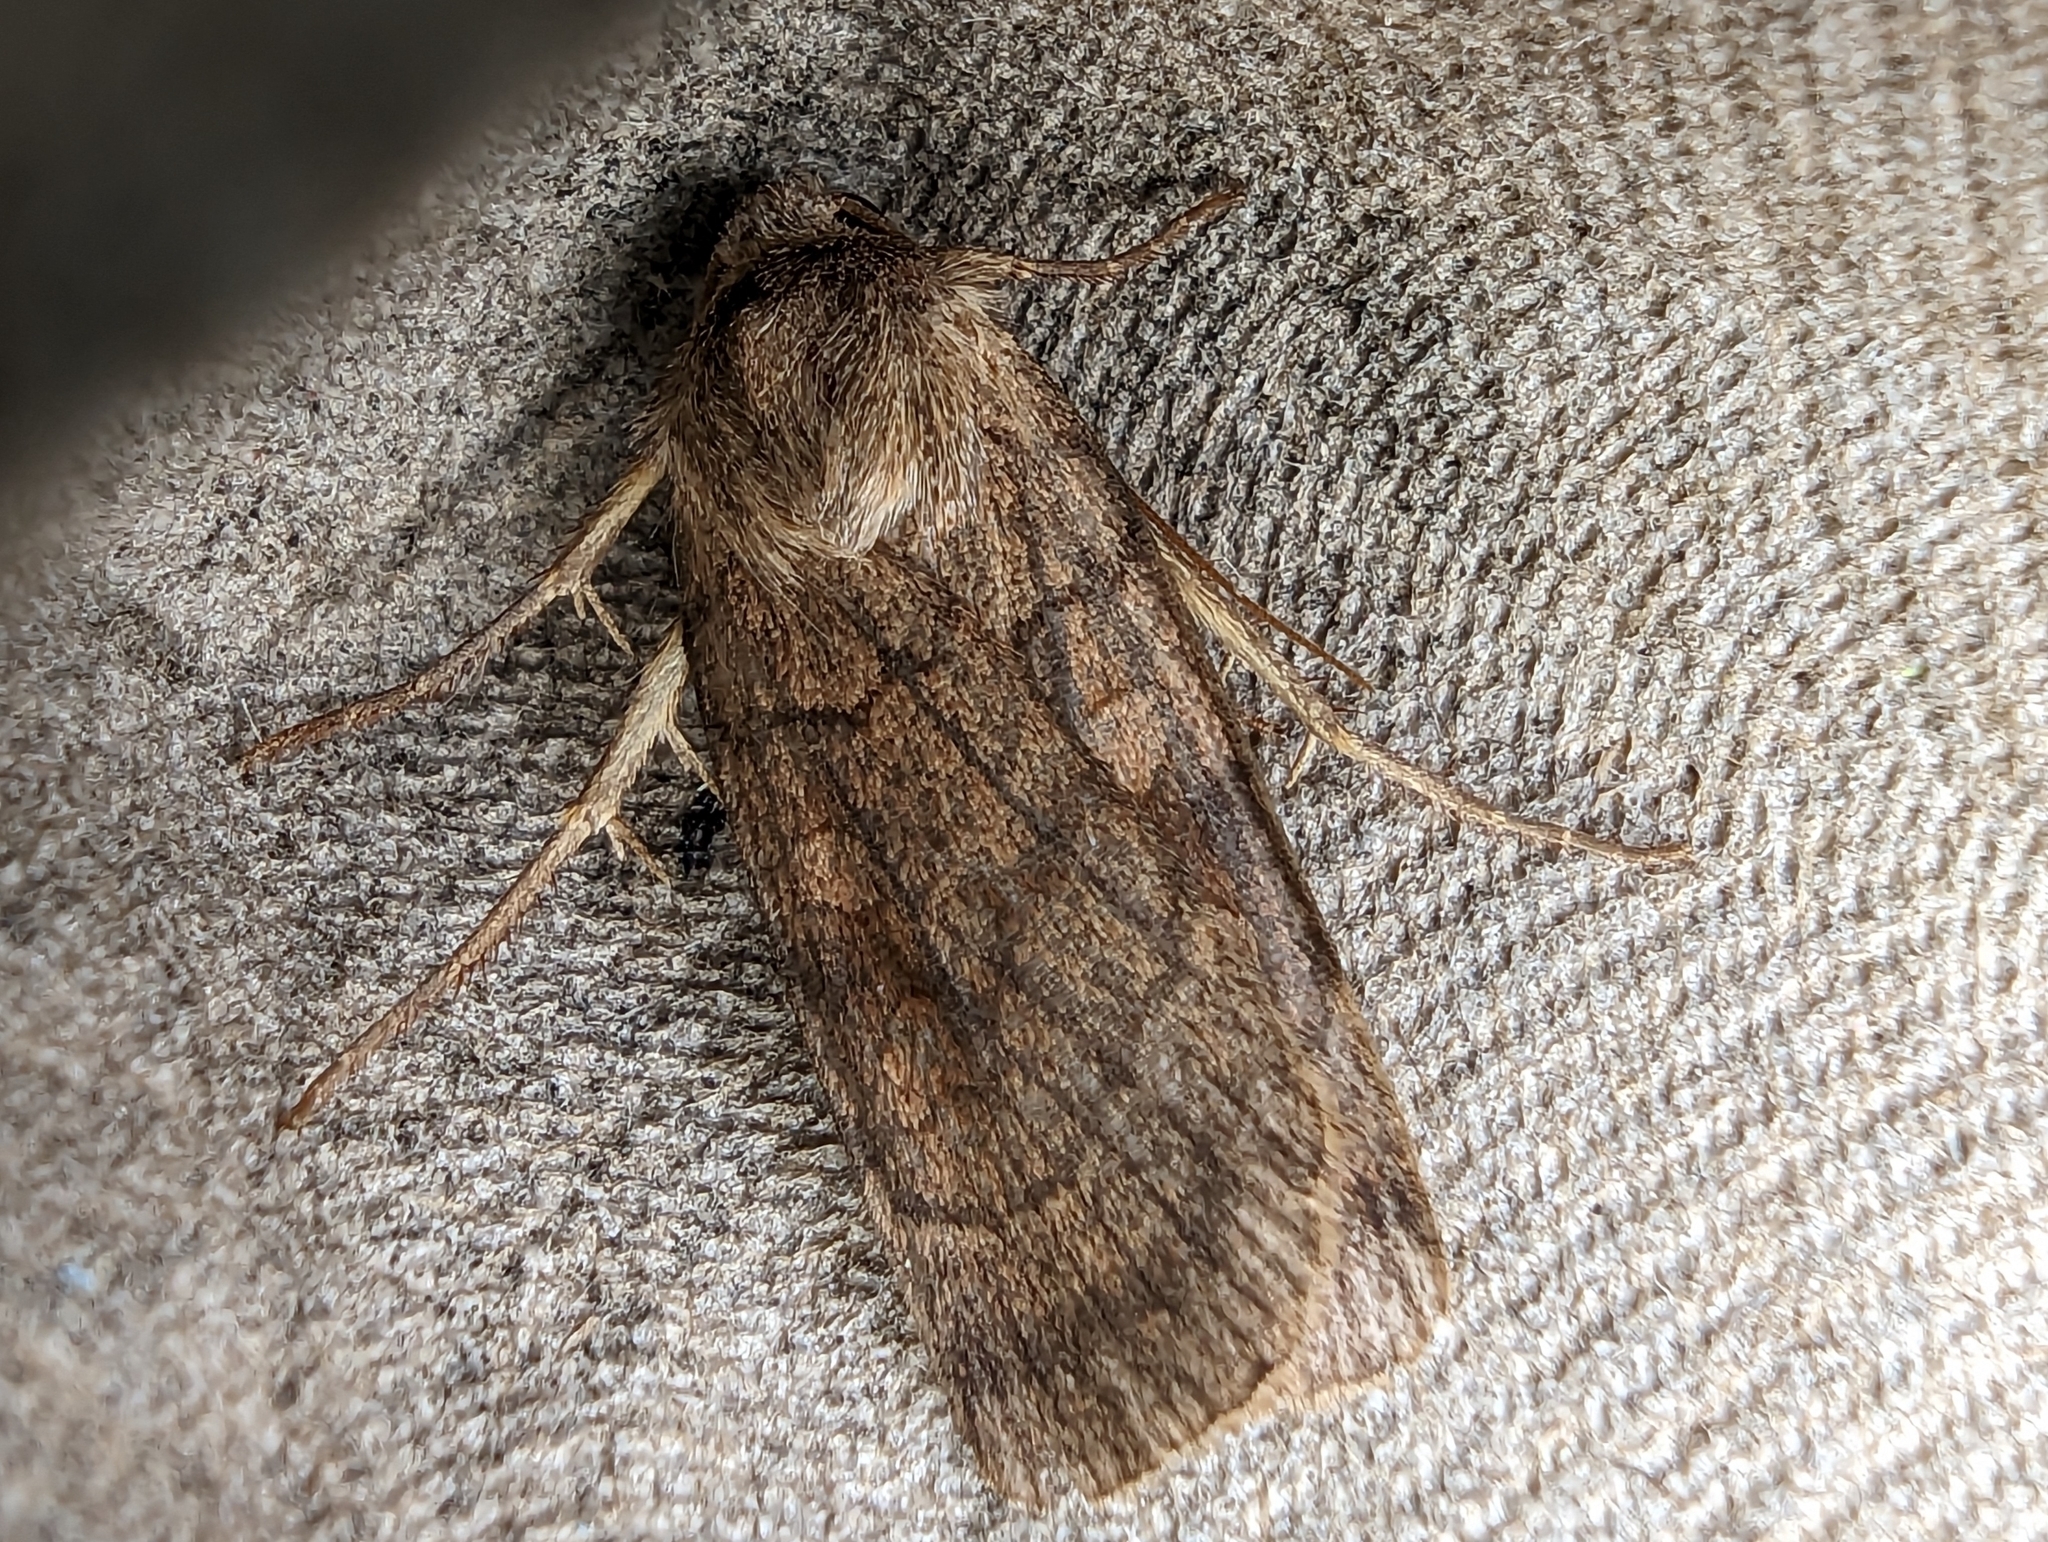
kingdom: Animalia
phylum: Arthropoda
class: Insecta
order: Lepidoptera
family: Noctuidae
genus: Xestia
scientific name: Xestia sexstrigata
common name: Six-striped rustic
